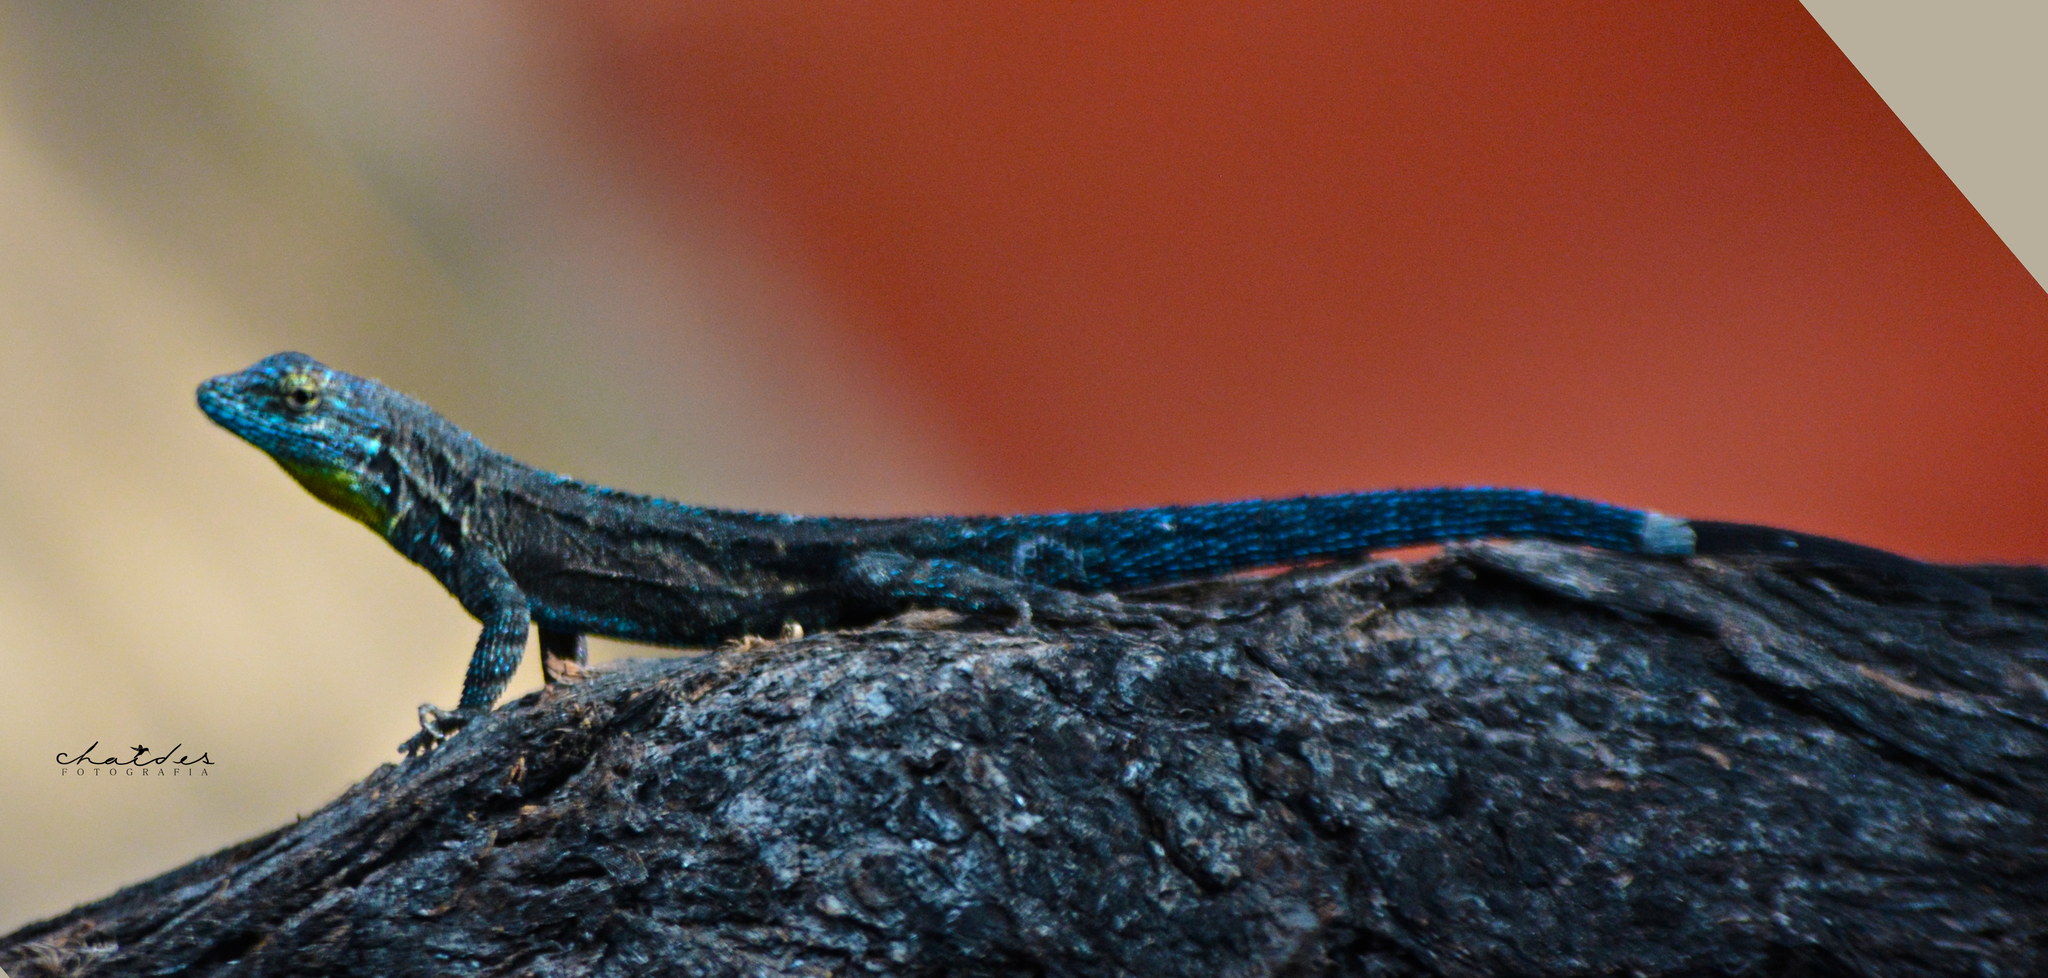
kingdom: Animalia
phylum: Chordata
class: Squamata
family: Phrynosomatidae
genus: Urosaurus
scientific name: Urosaurus ornatus
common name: Ornate tree lizard
